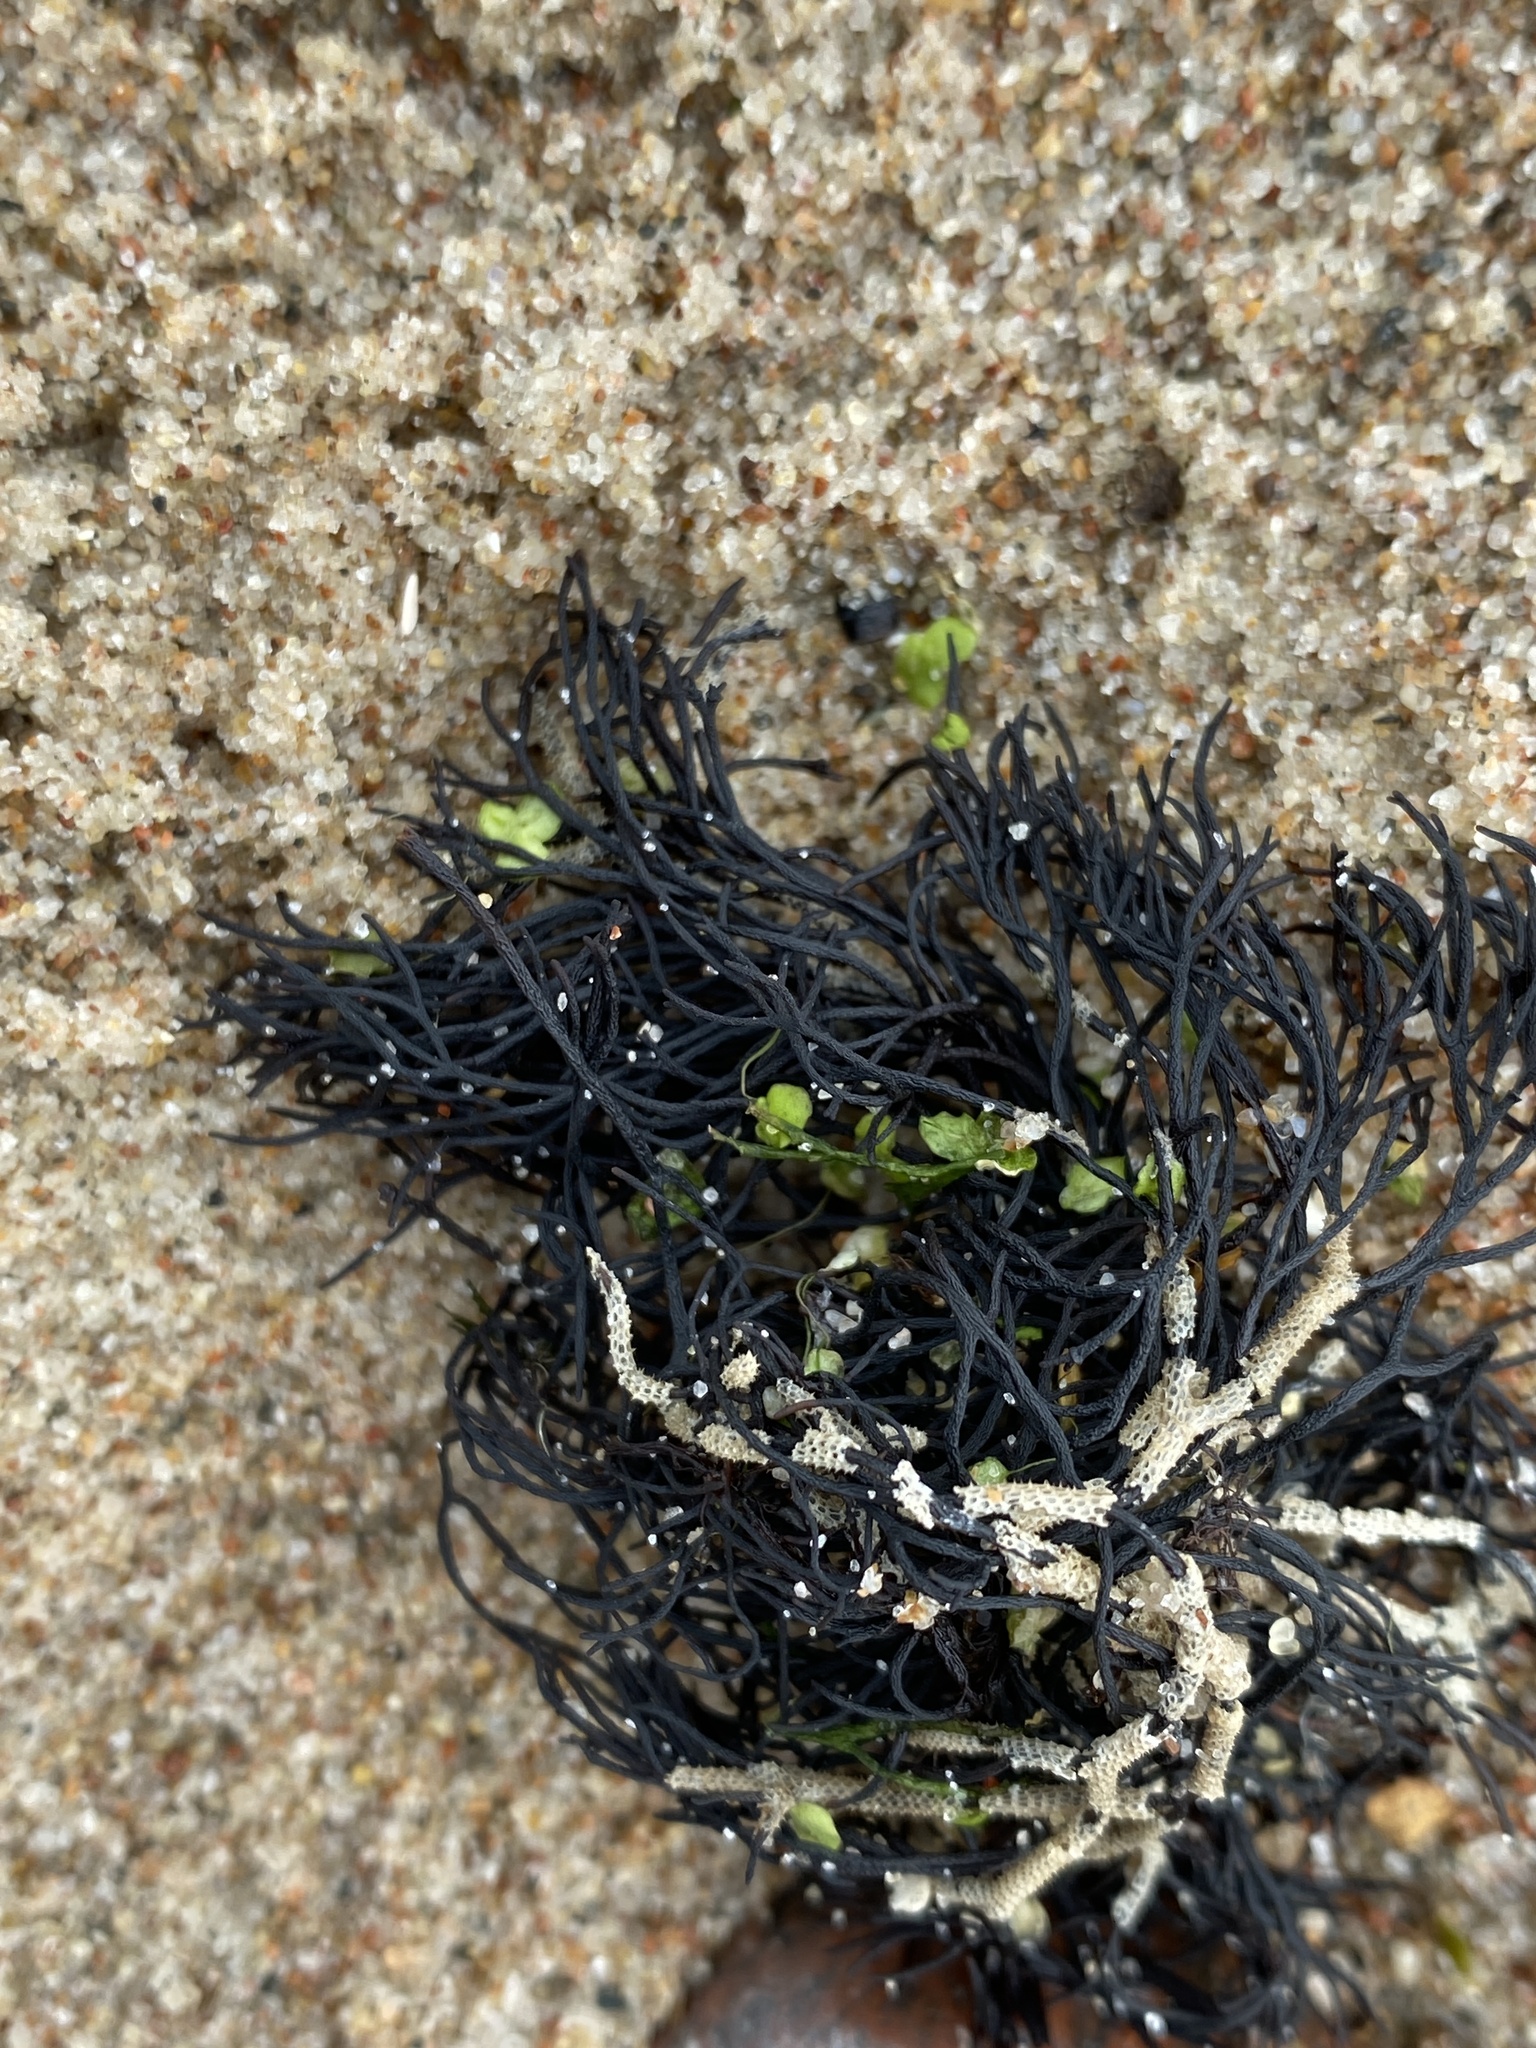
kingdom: Plantae
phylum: Rhodophyta
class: Florideophyceae
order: Gigartinales
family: Furcellariaceae
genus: Furcellaria
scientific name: Furcellaria lumbricalis
